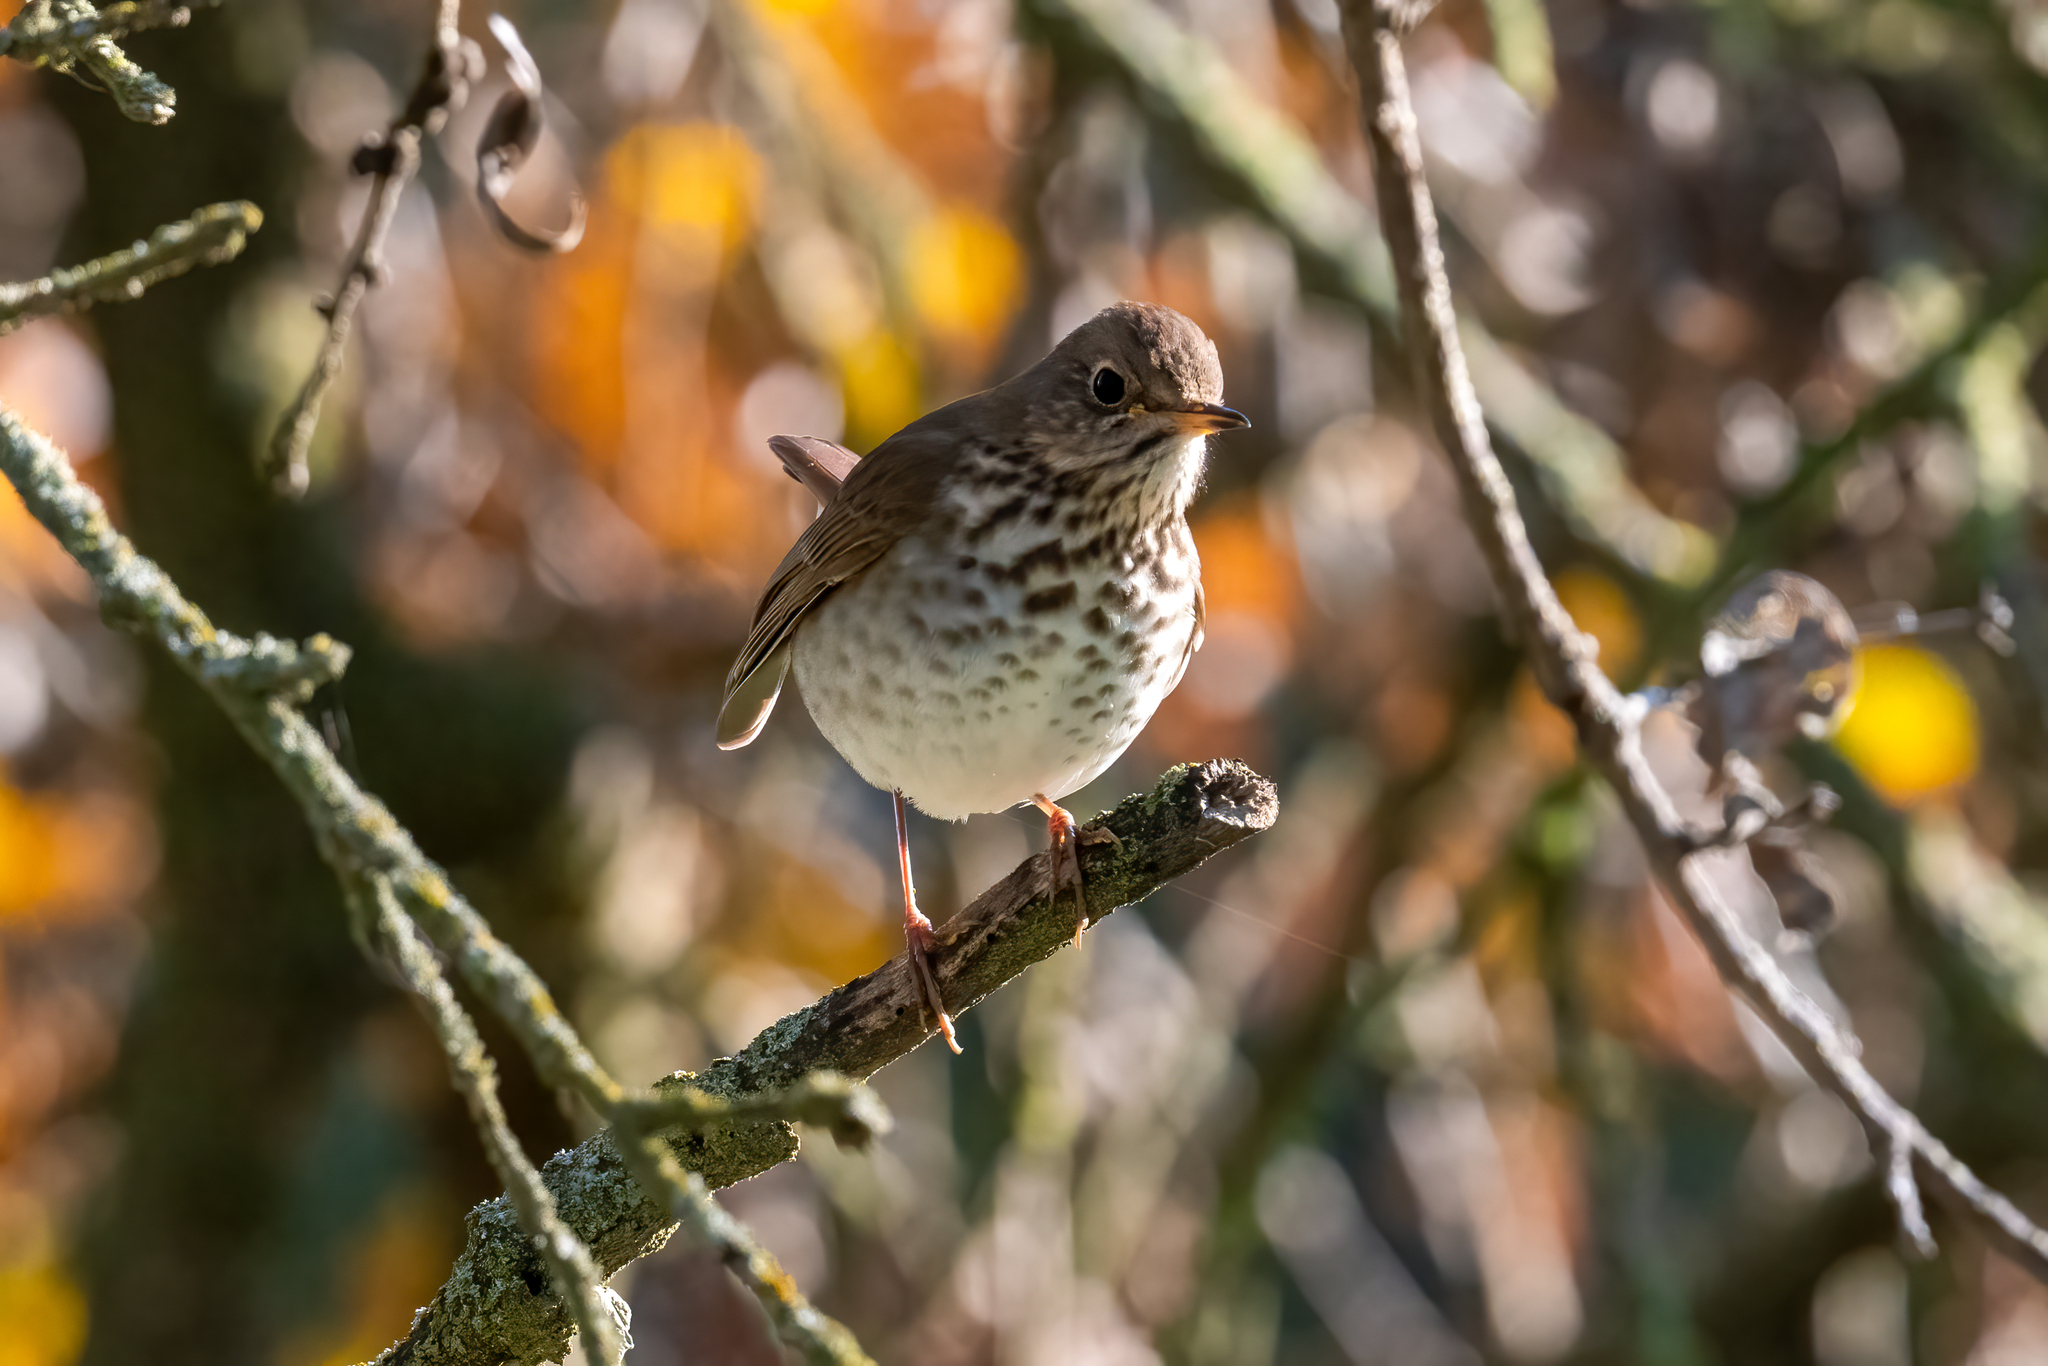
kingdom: Animalia
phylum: Chordata
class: Aves
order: Passeriformes
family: Turdidae
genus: Catharus
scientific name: Catharus guttatus
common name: Hermit thrush
